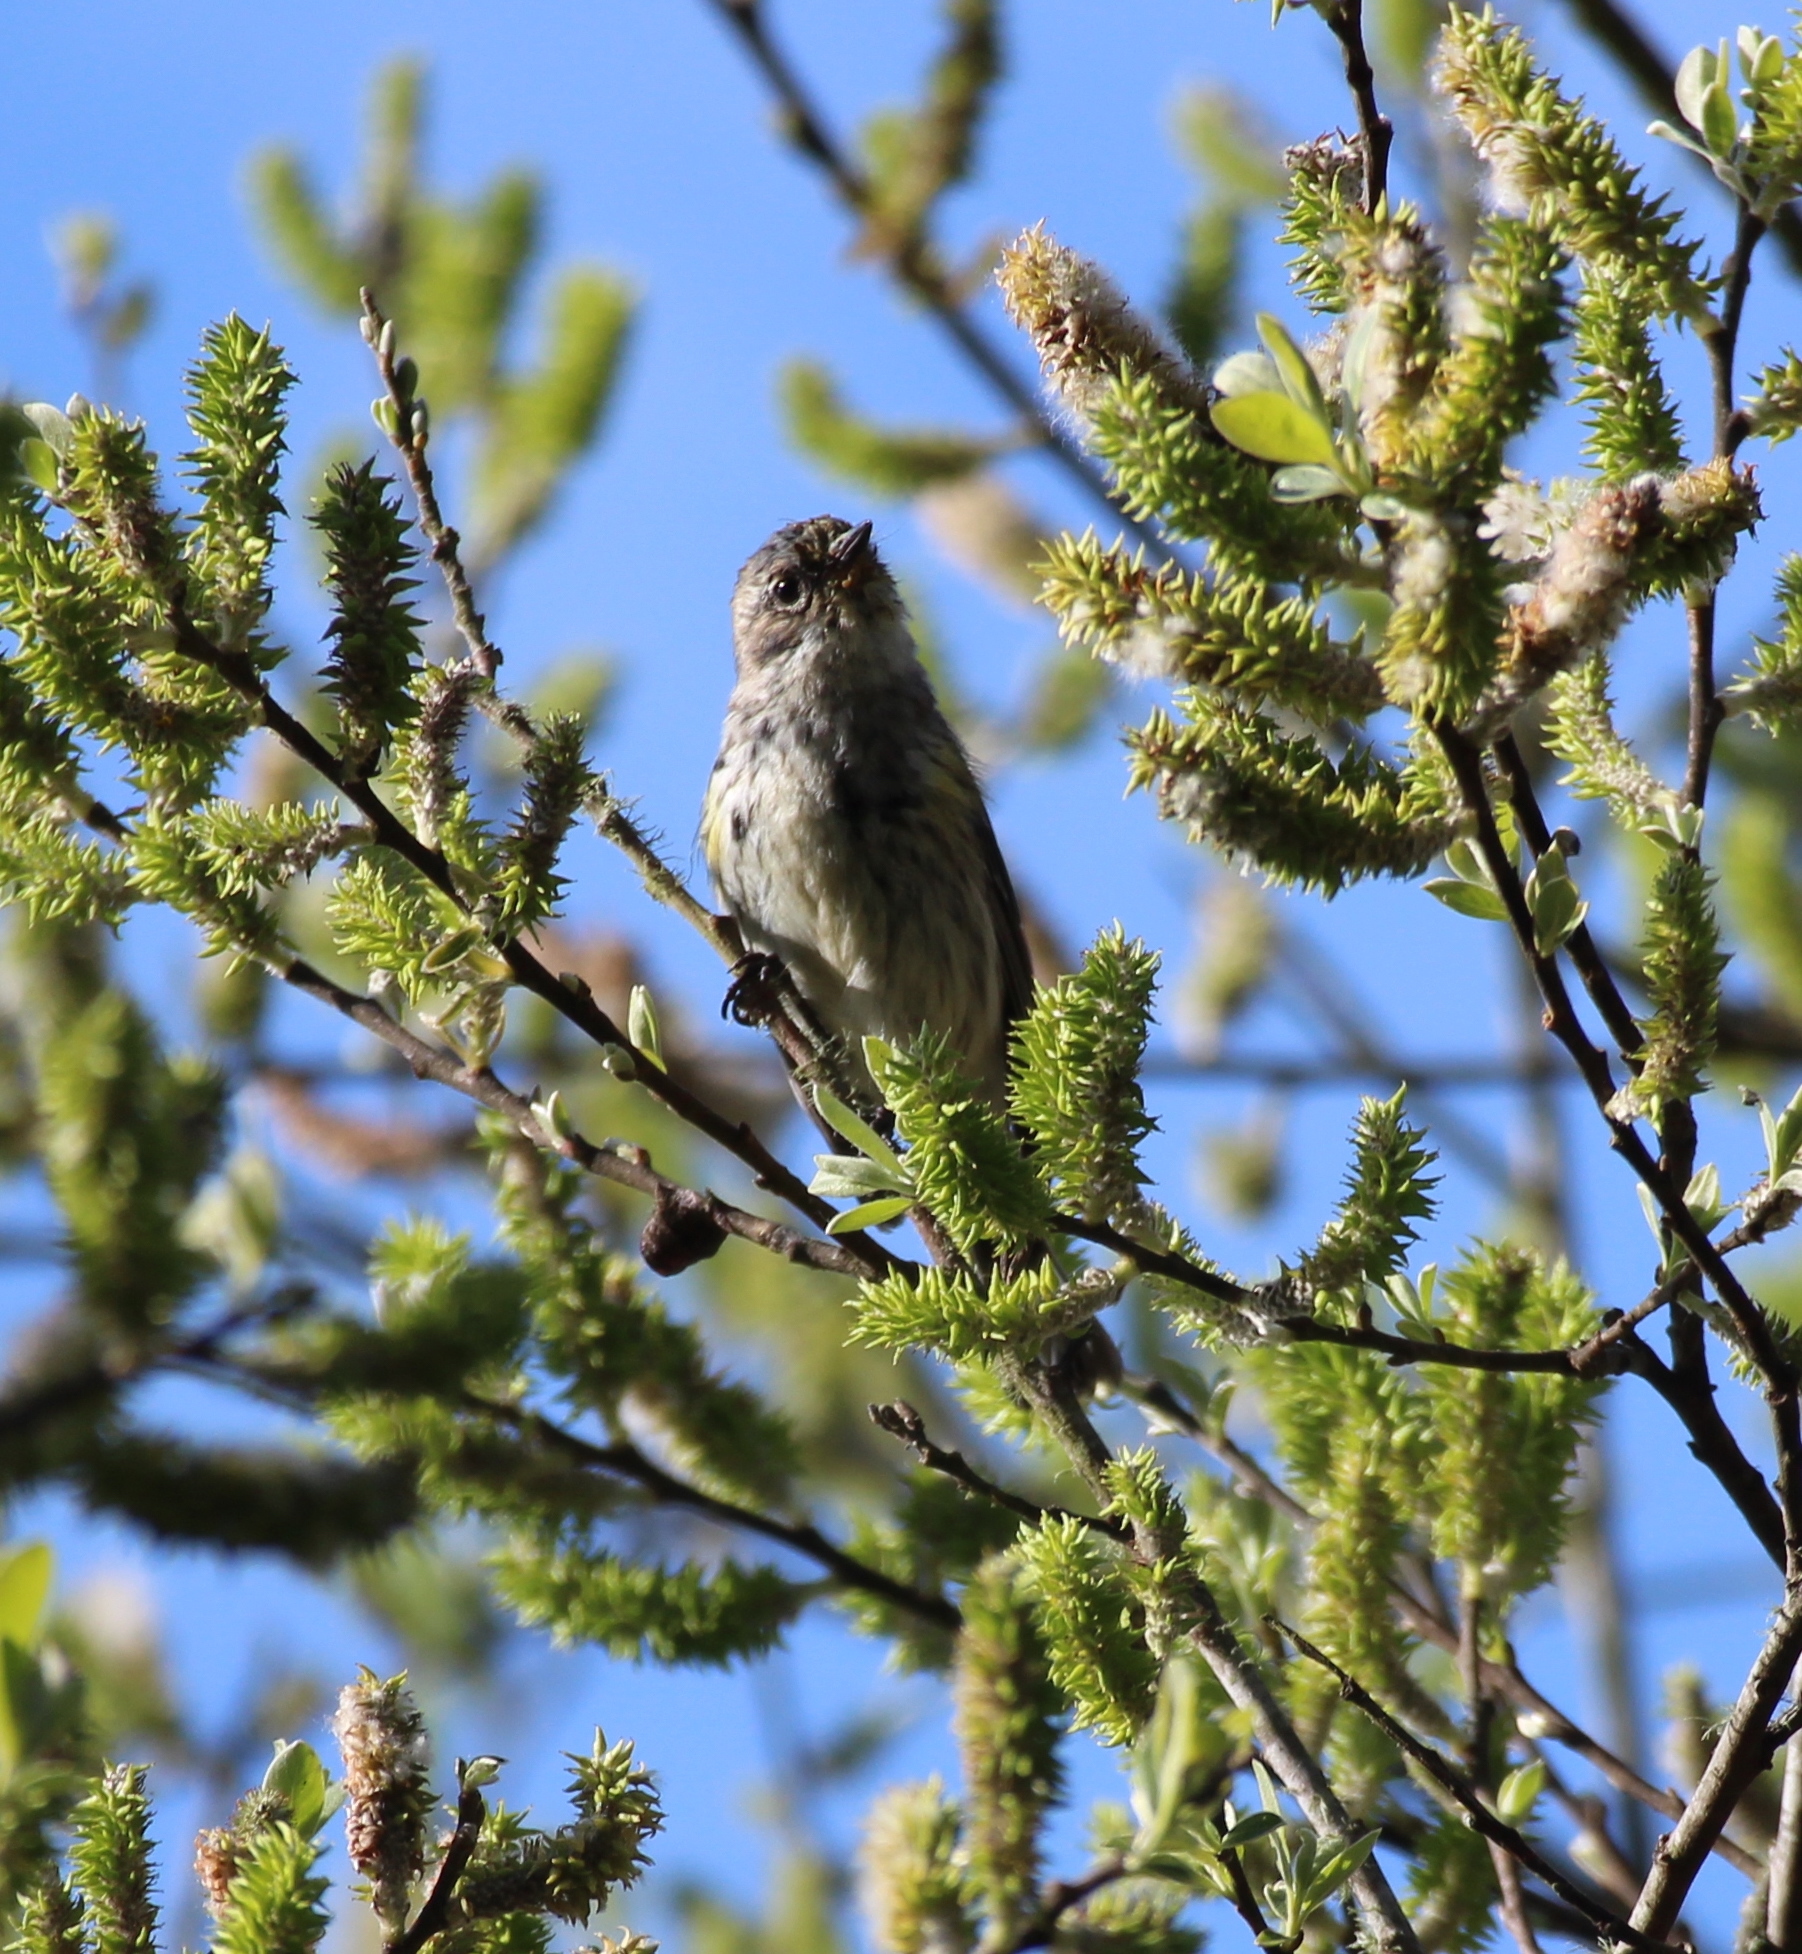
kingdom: Animalia
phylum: Chordata
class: Aves
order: Passeriformes
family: Parulidae
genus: Setophaga
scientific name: Setophaga coronata
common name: Myrtle warbler
